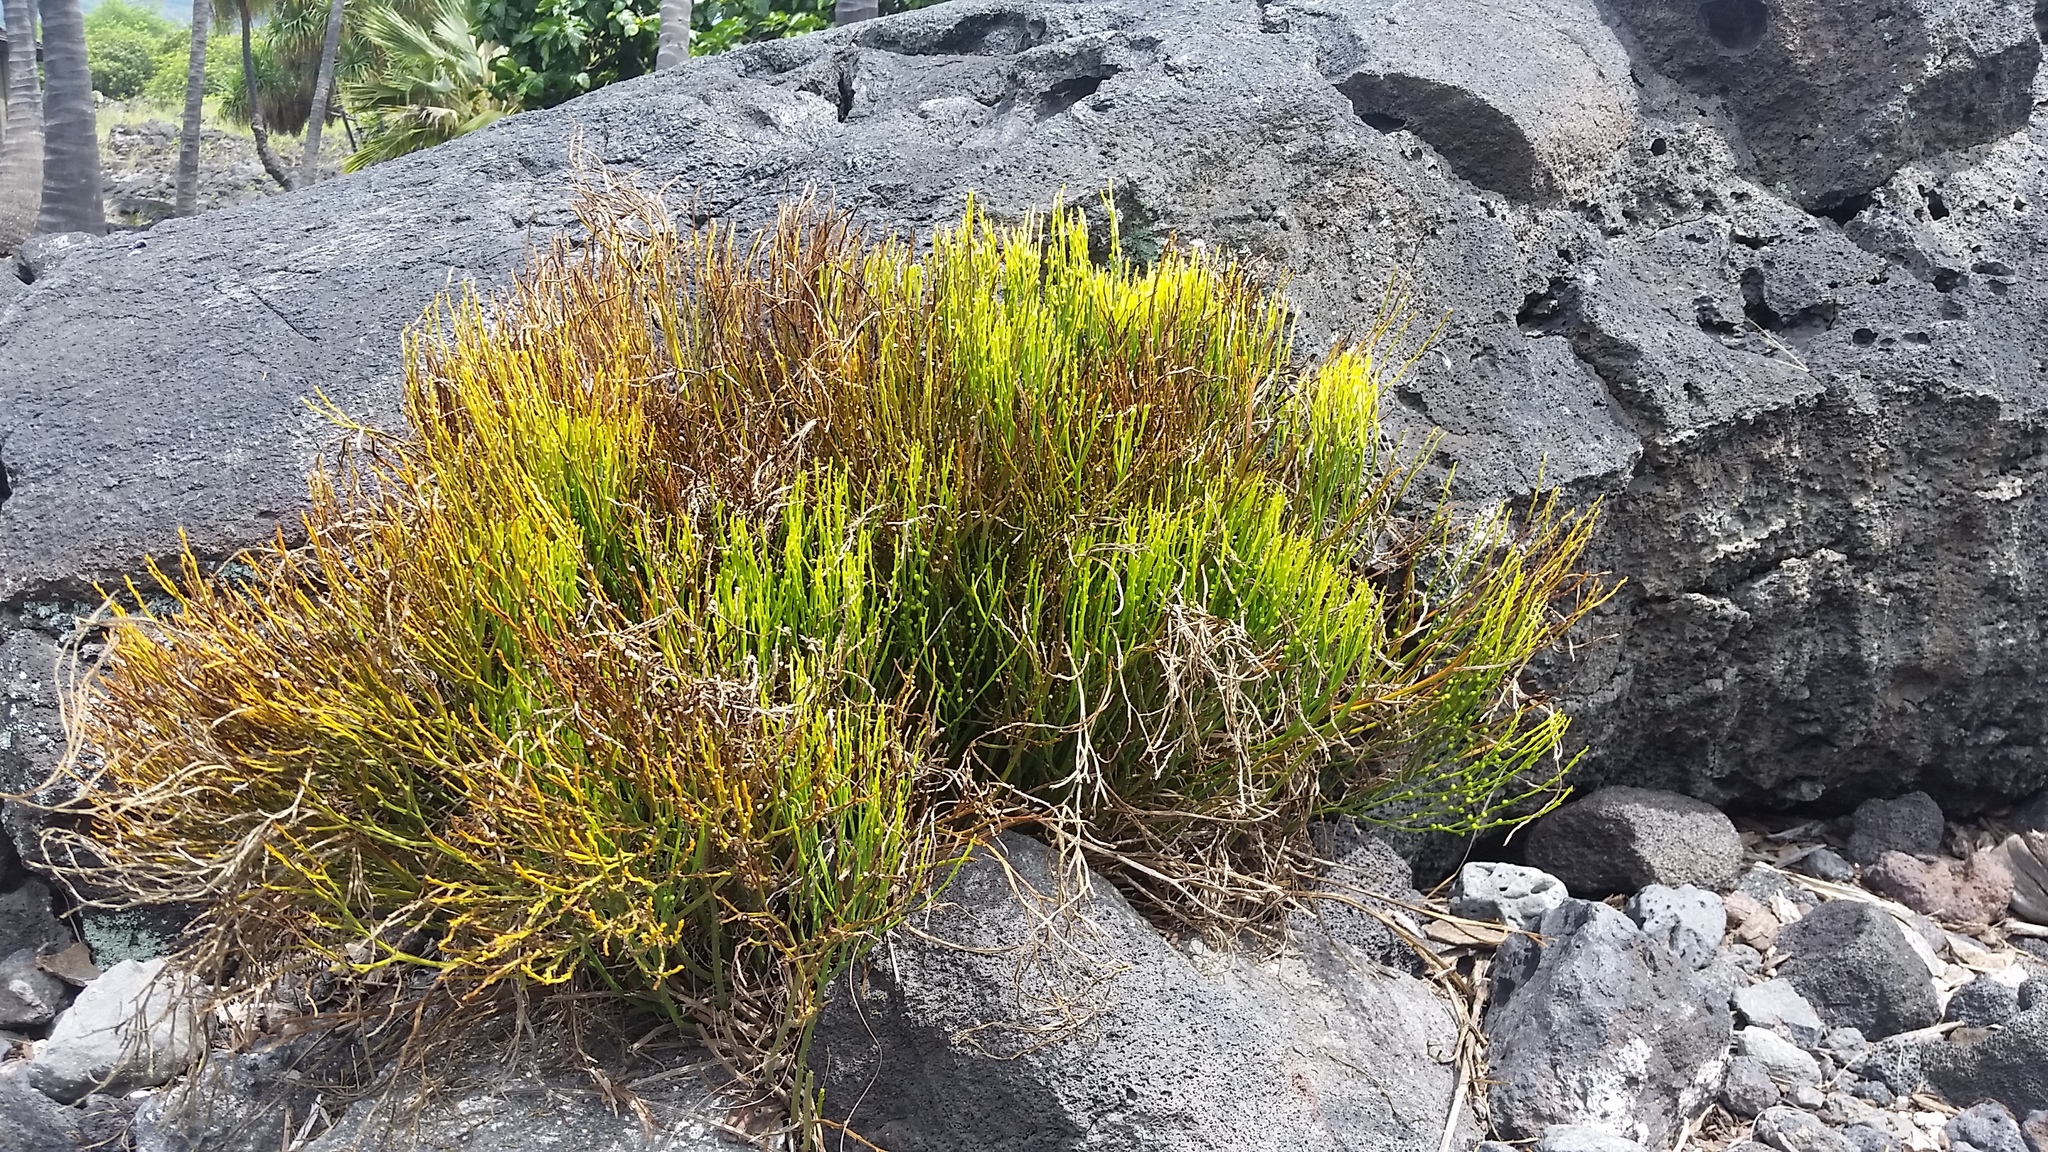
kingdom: Plantae
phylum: Tracheophyta
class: Polypodiopsida
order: Psilotales
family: Psilotaceae
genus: Psilotum
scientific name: Psilotum nudum
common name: Skeleton fork fern
